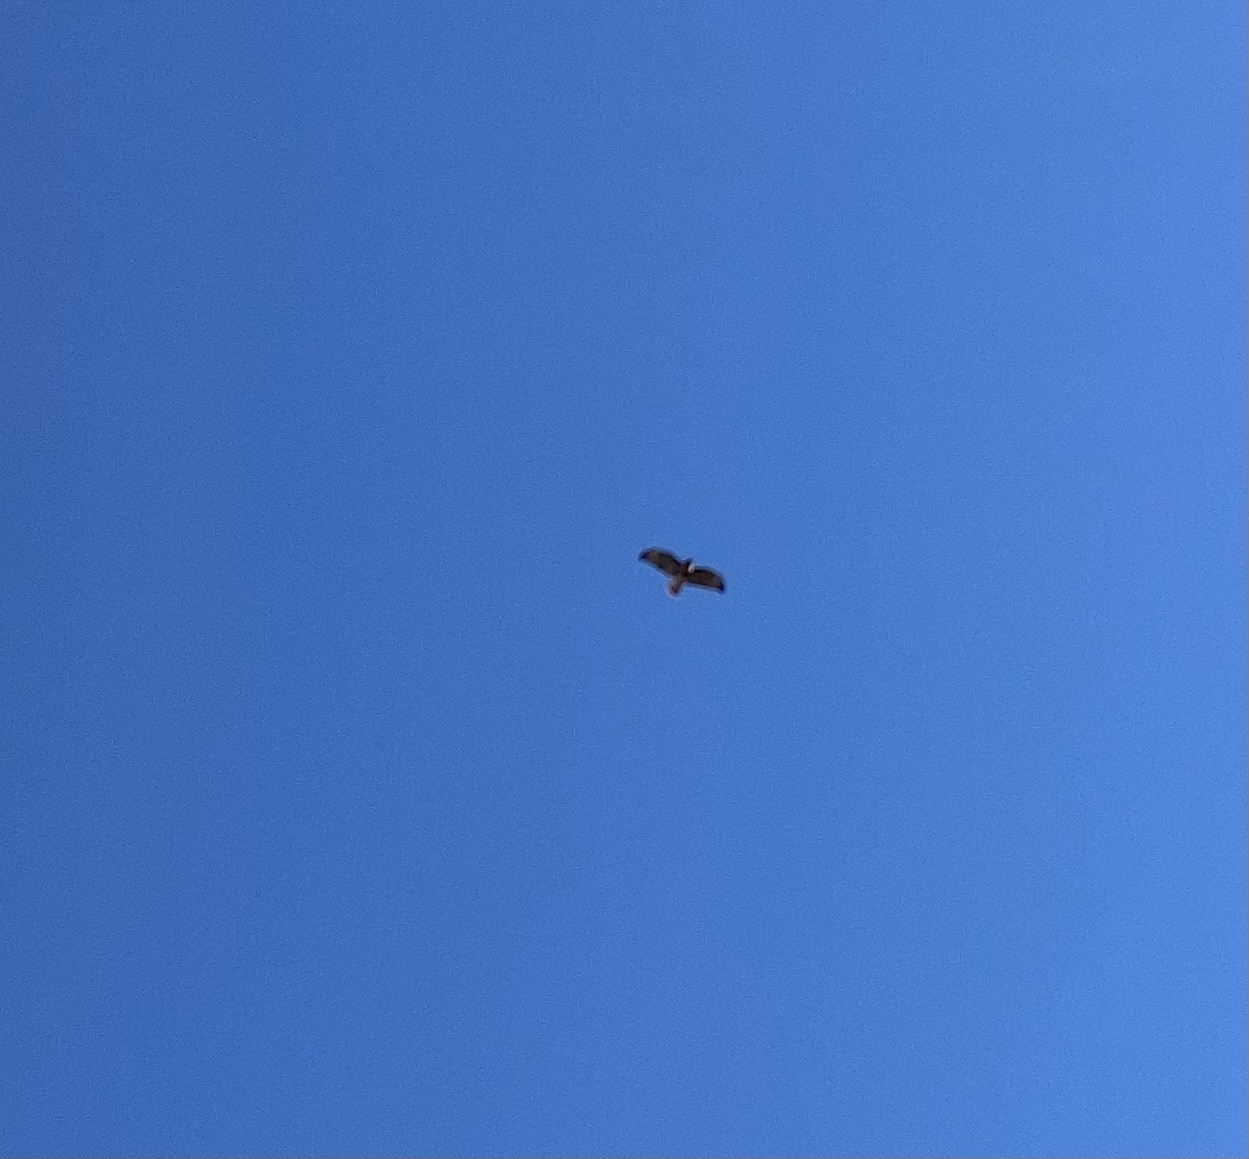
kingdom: Animalia
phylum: Chordata
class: Aves
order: Accipitriformes
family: Accipitridae
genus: Buteo
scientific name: Buteo jamaicensis
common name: Red-tailed hawk
